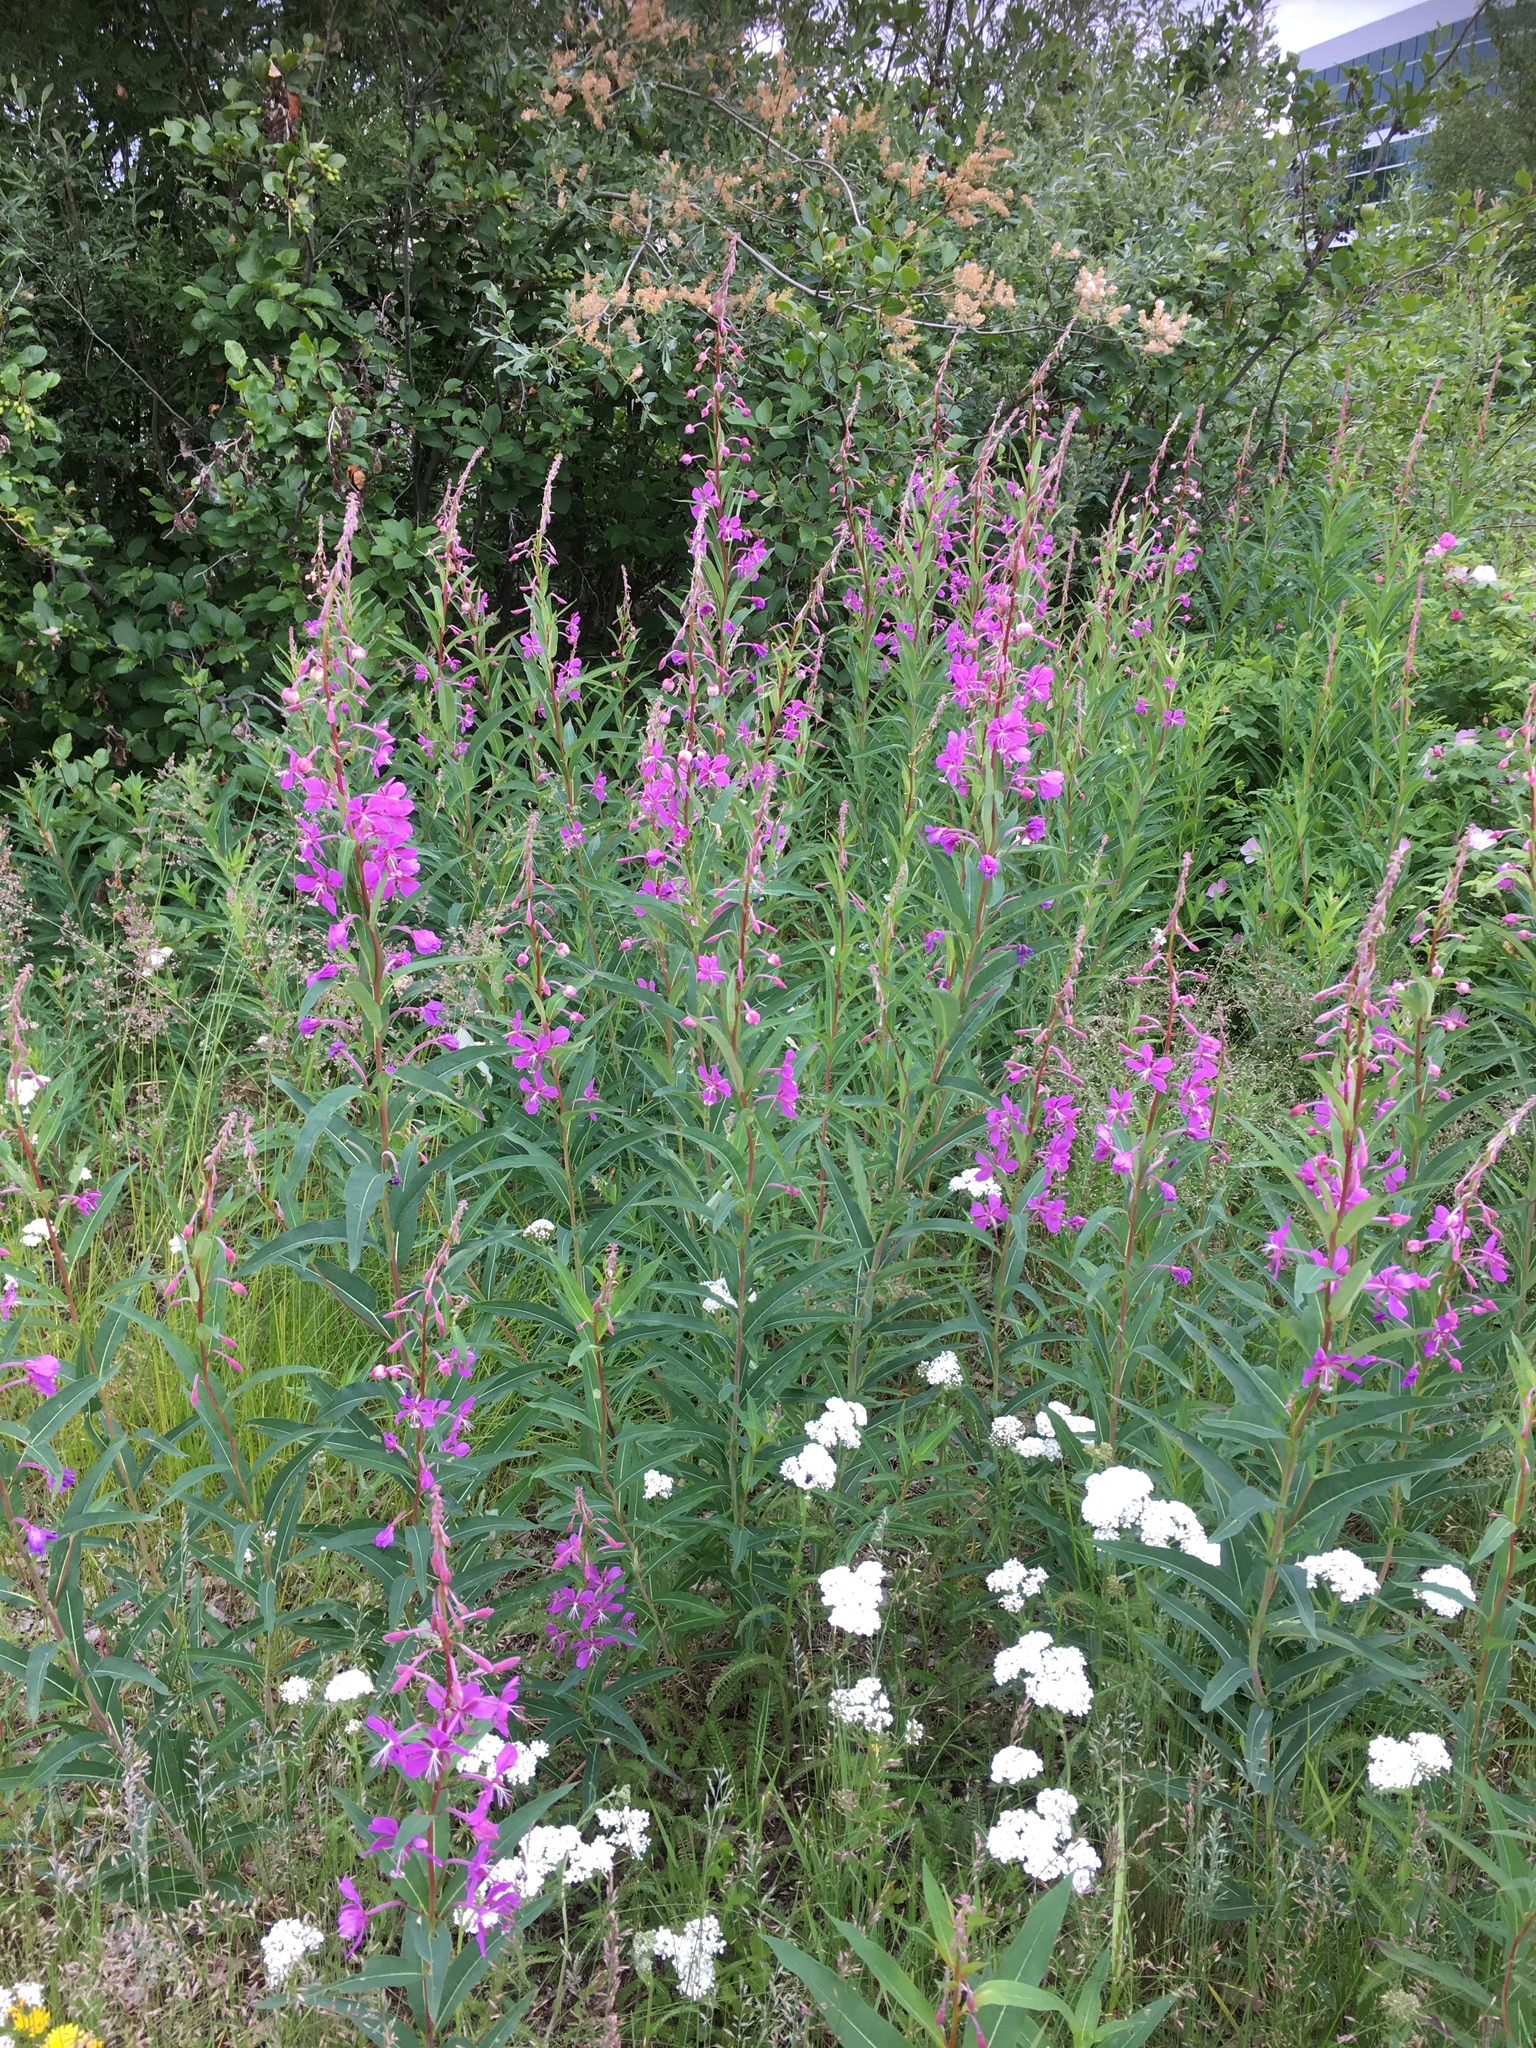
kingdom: Plantae
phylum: Tracheophyta
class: Magnoliopsida
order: Myrtales
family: Onagraceae
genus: Chamaenerion
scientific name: Chamaenerion angustifolium
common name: Fireweed
